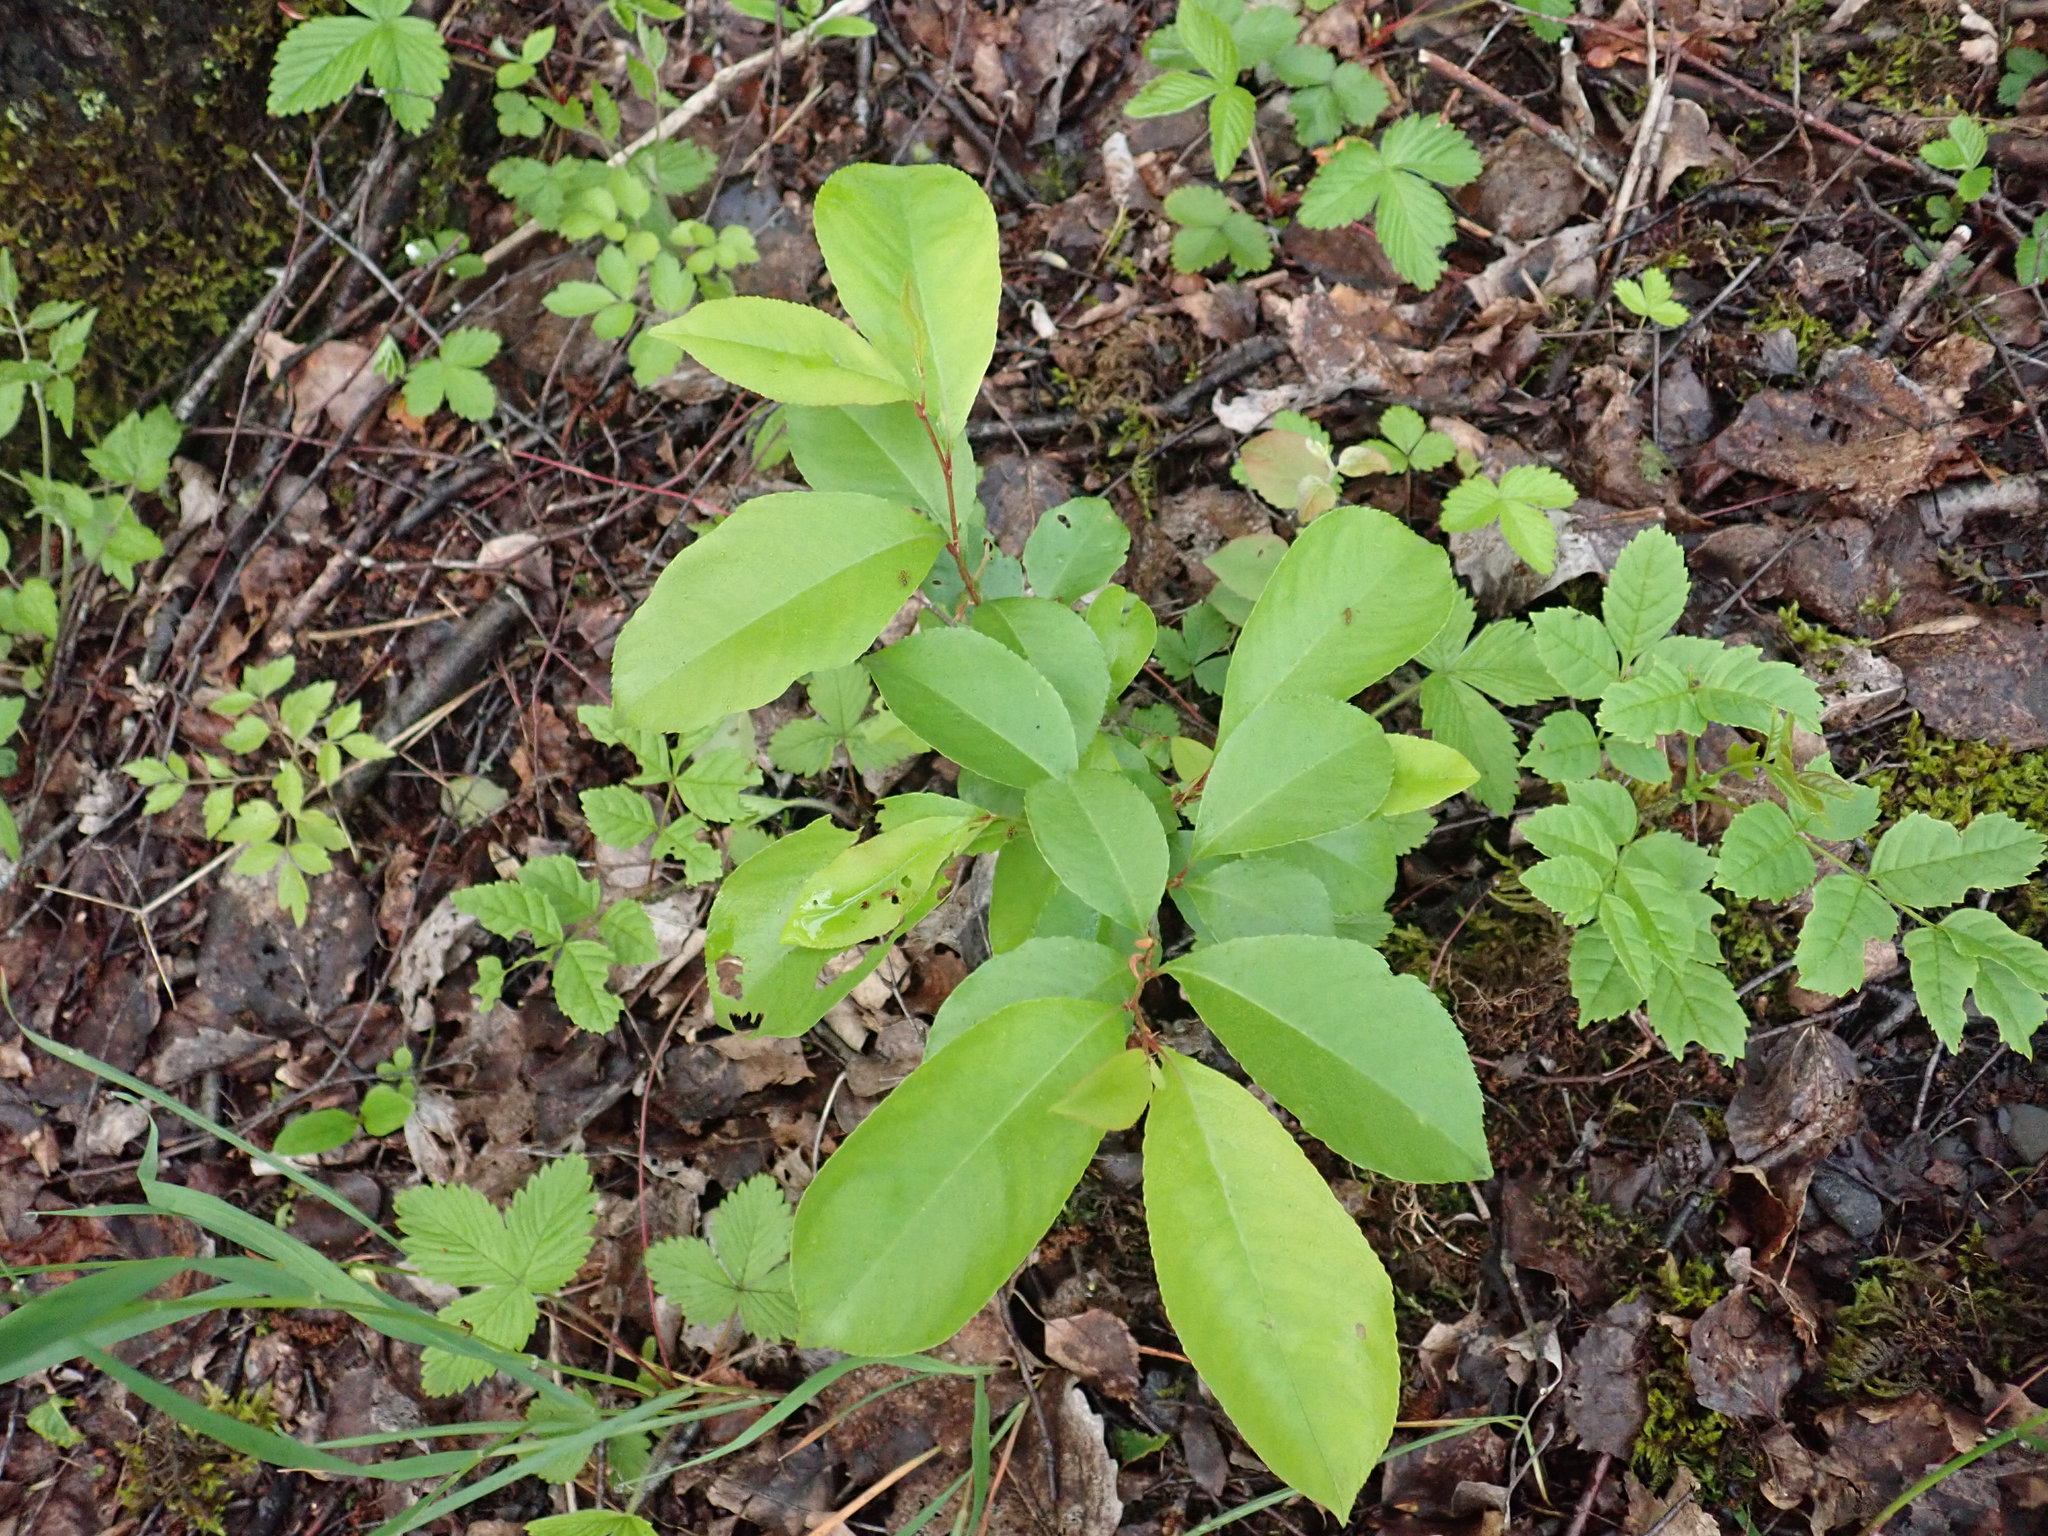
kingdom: Plantae
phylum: Tracheophyta
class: Magnoliopsida
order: Rosales
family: Rosaceae
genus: Prunus
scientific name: Prunus serotina
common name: Black cherry
